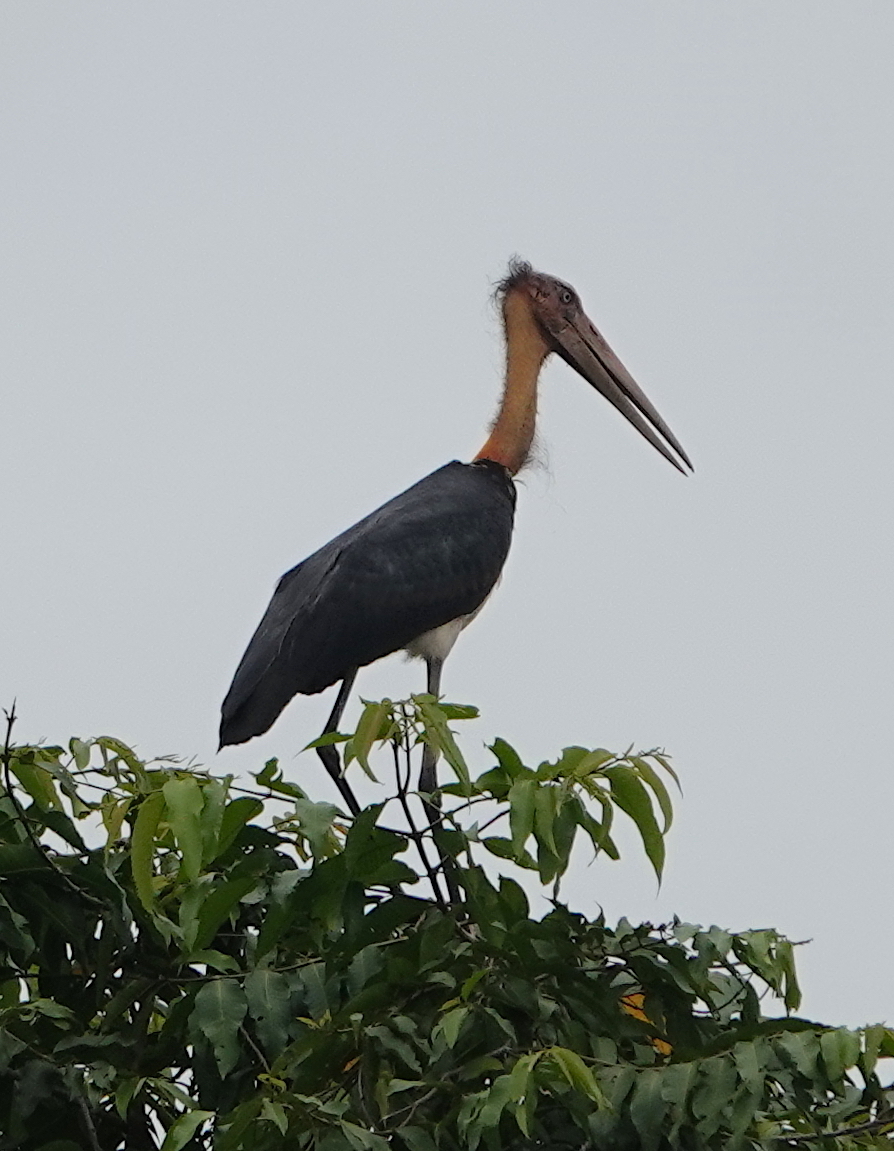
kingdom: Animalia
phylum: Chordata
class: Aves
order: Ciconiiformes
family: Ciconiidae
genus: Leptoptilos
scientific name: Leptoptilos javanicus
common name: Lesser adjutant
